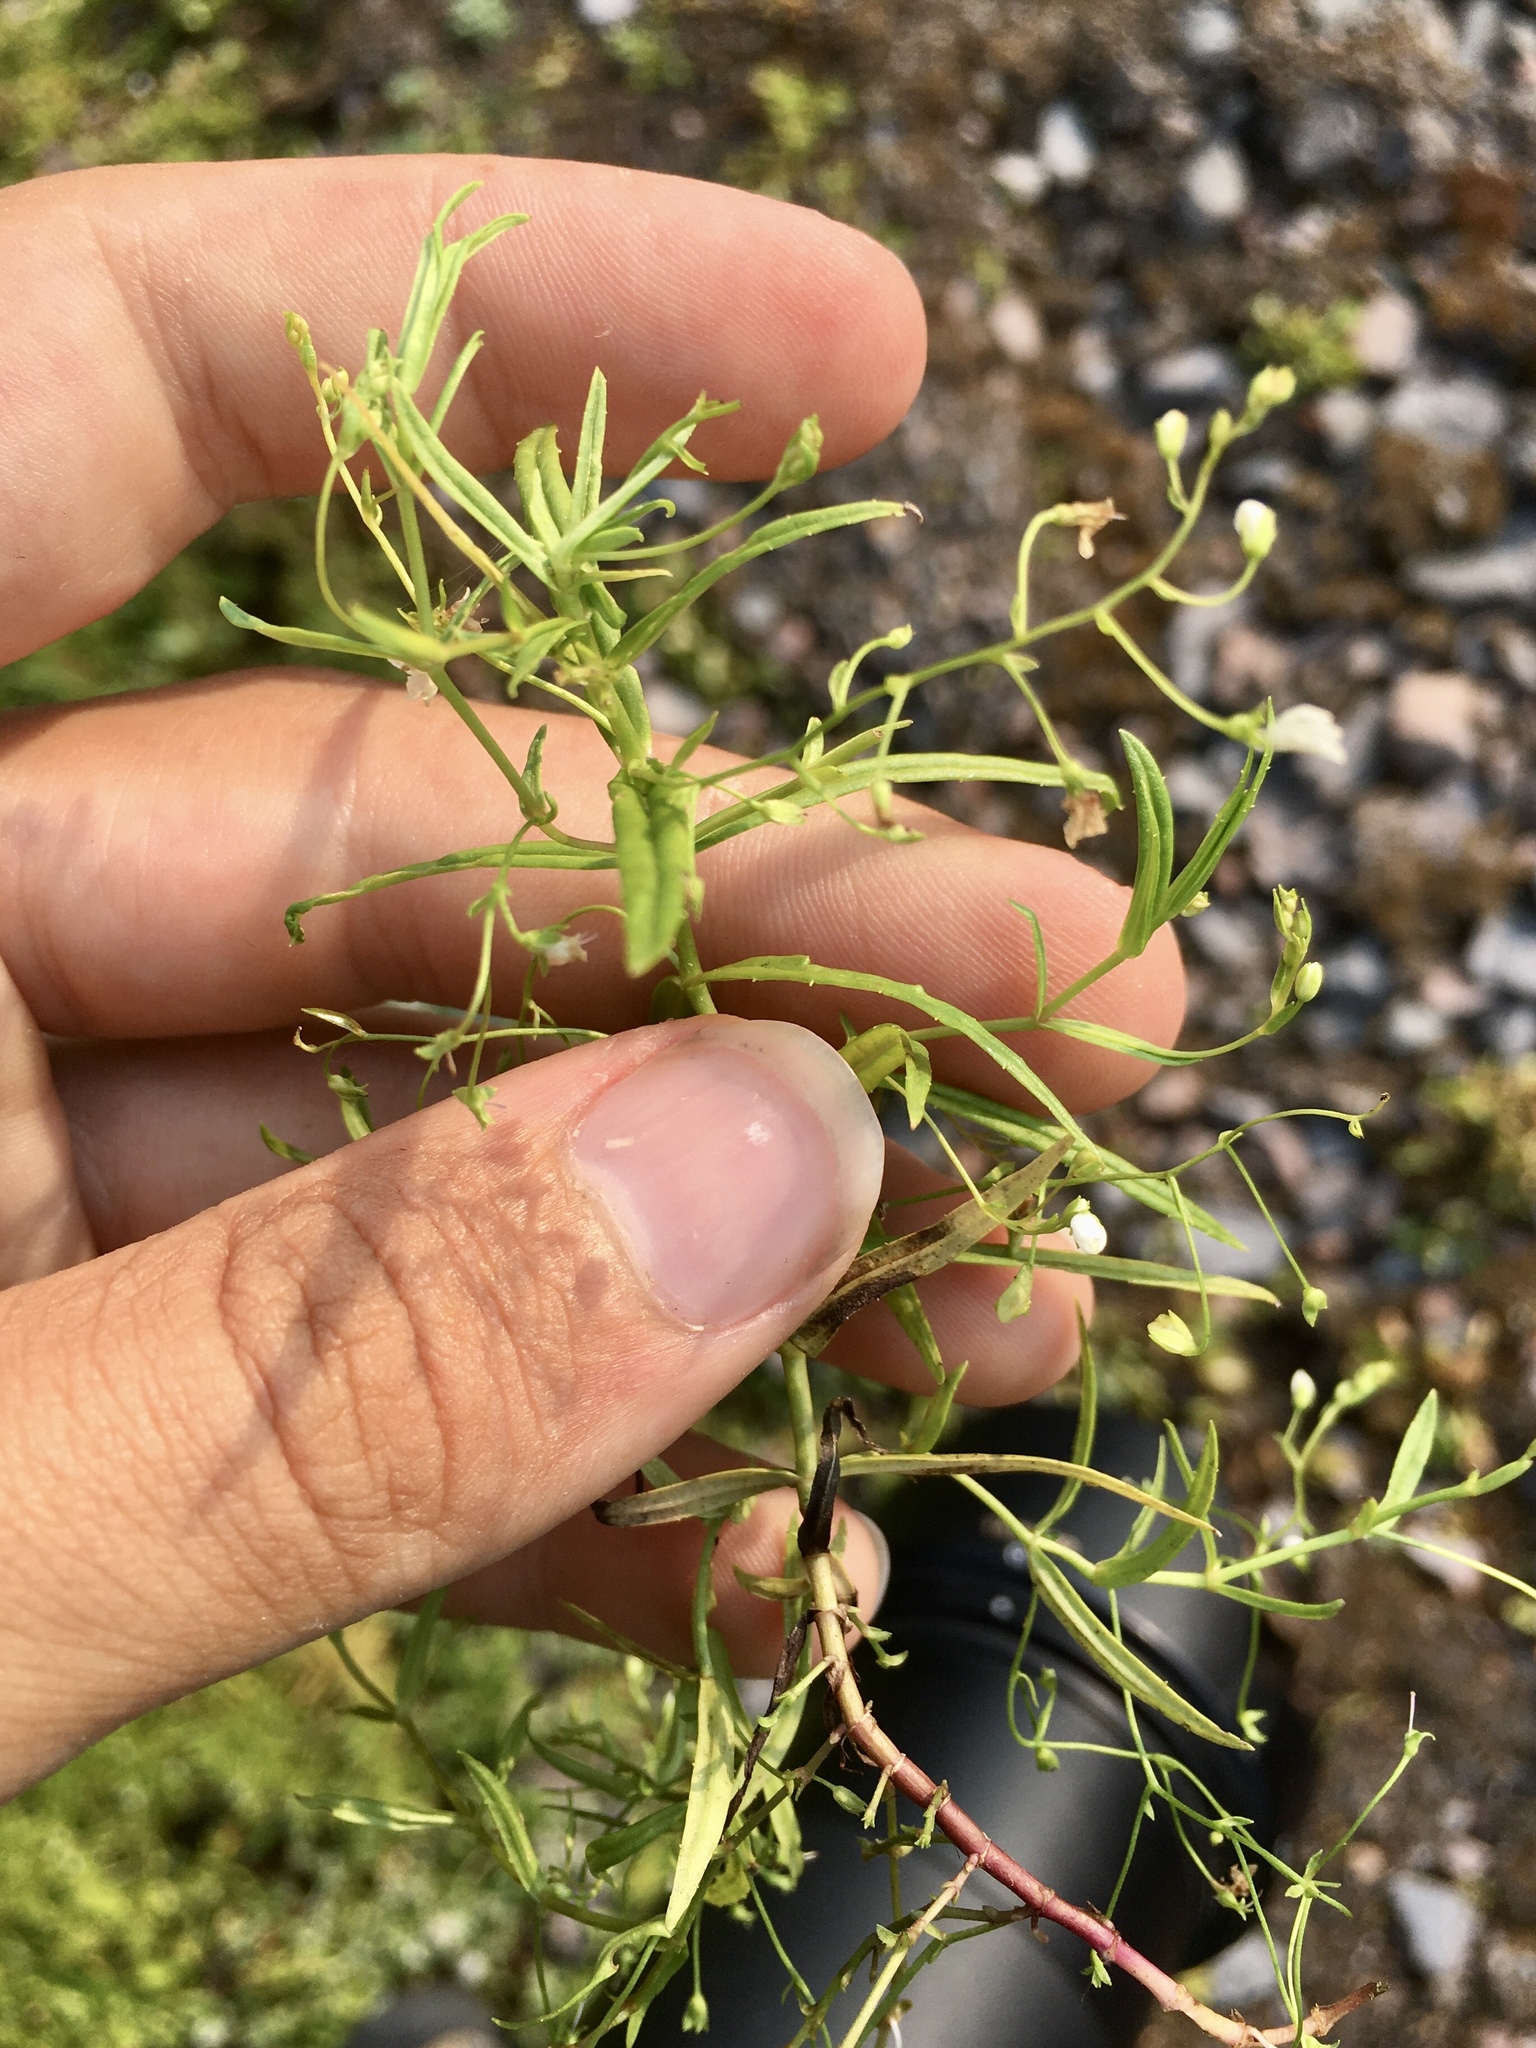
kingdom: Plantae
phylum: Tracheophyta
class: Magnoliopsida
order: Lamiales
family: Plantaginaceae
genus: Veronica
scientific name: Veronica scutellata
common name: Marsh speedwell
